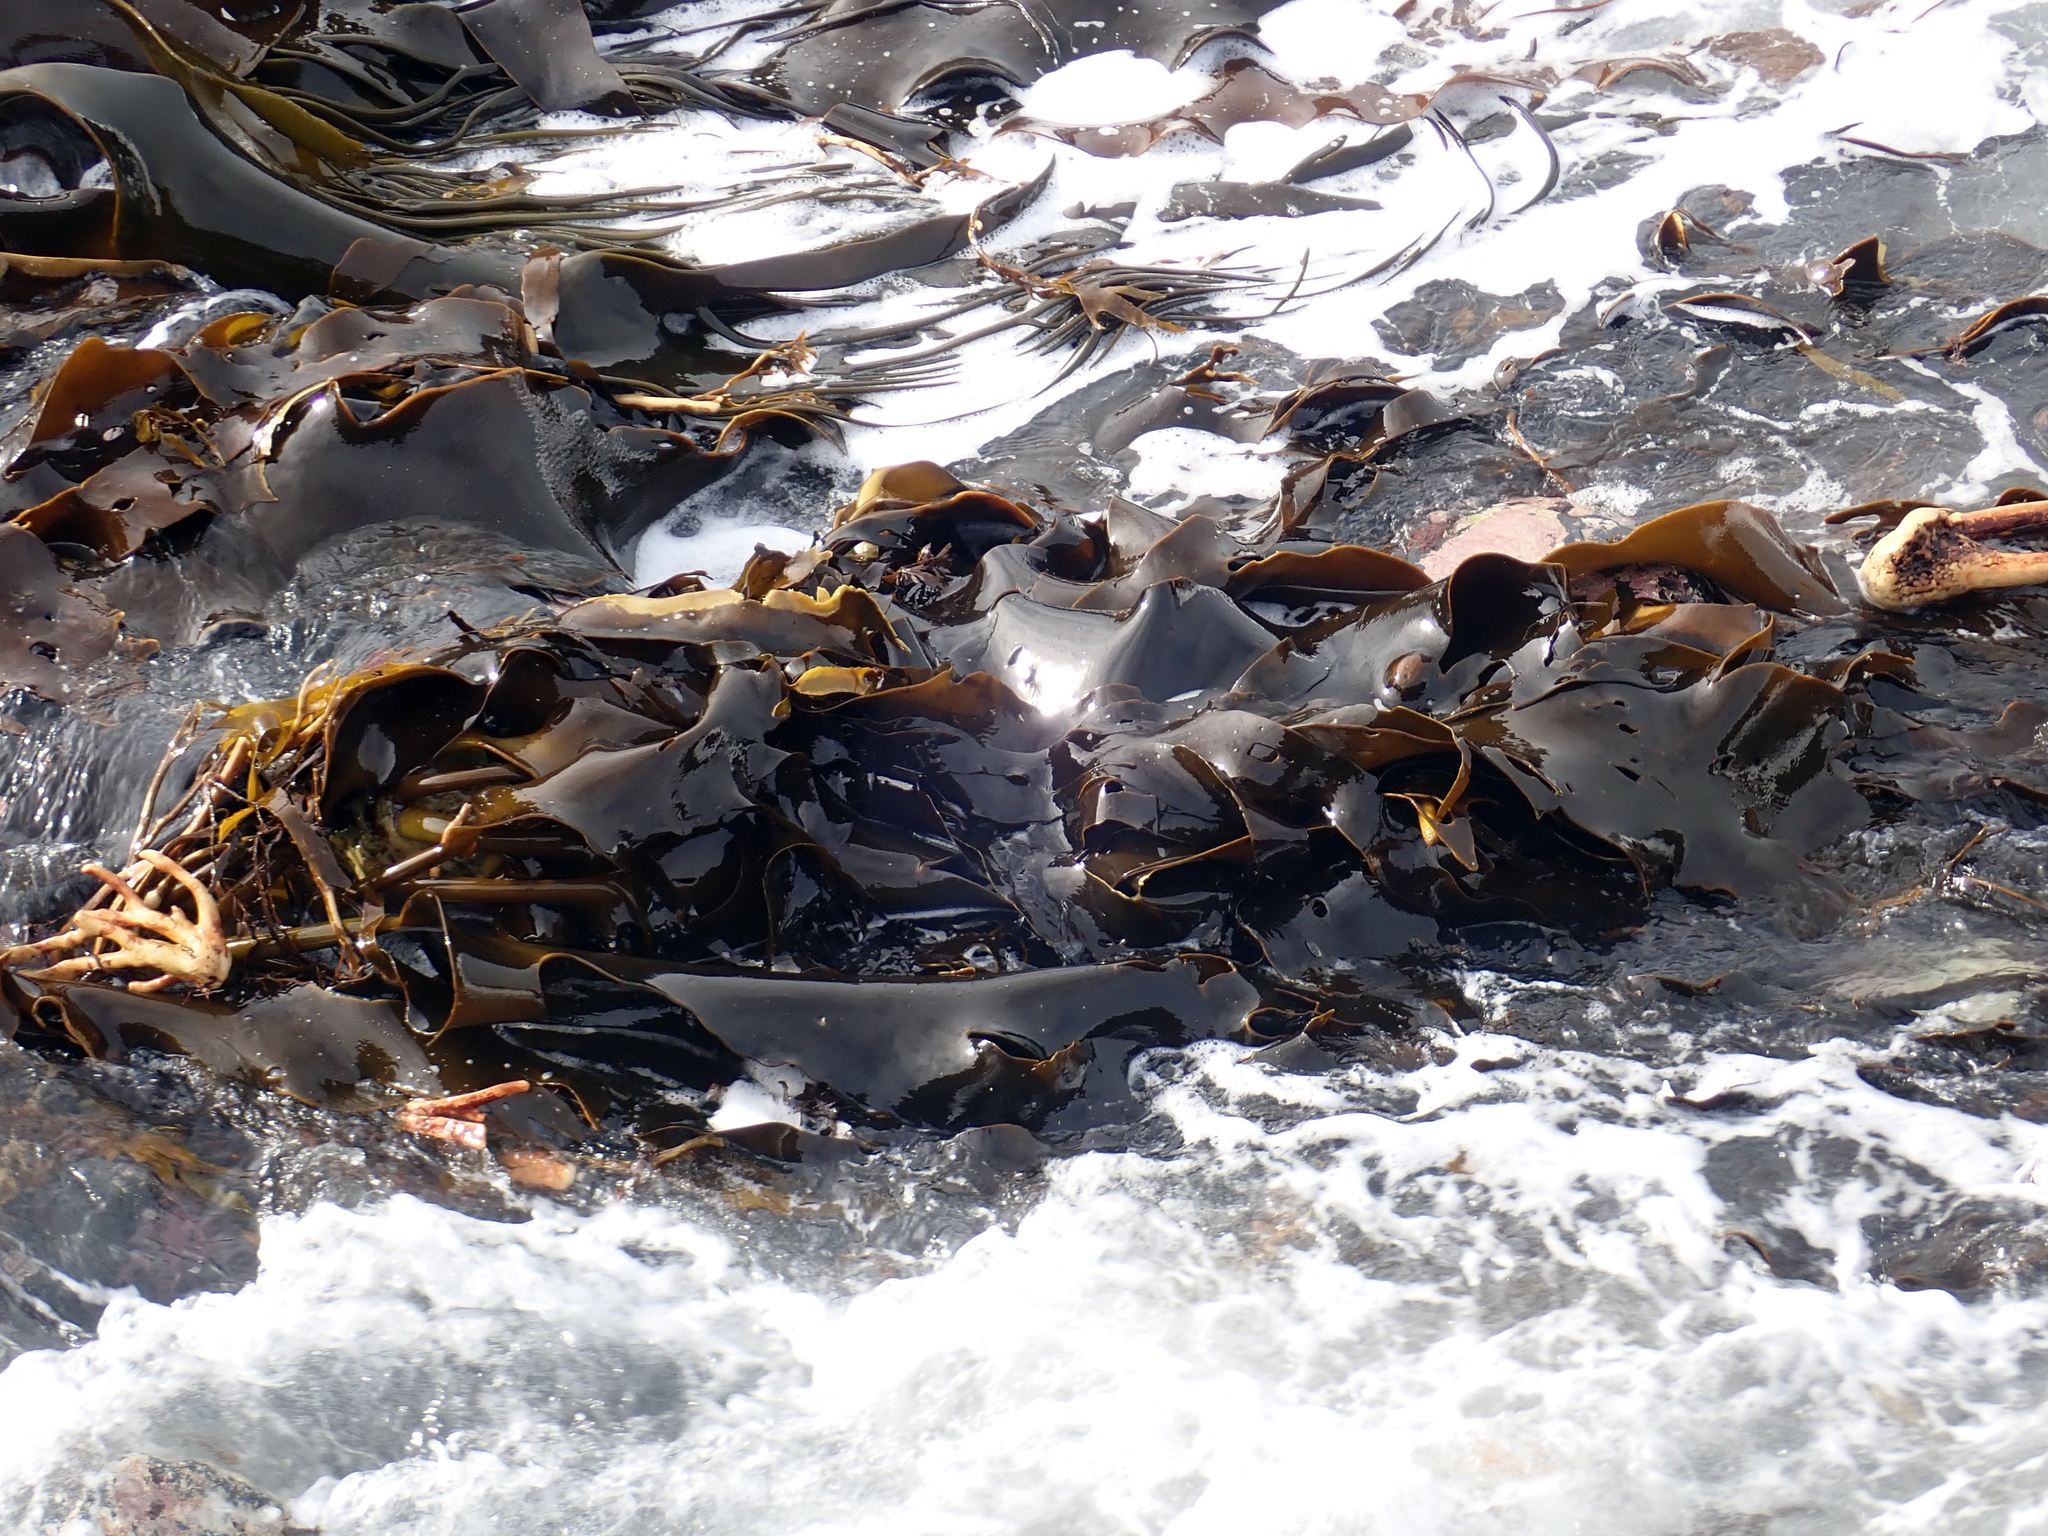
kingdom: Chromista
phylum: Ochrophyta
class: Phaeophyceae
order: Fucales
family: Durvillaeaceae
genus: Durvillaea
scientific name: Durvillaea chathamensis
